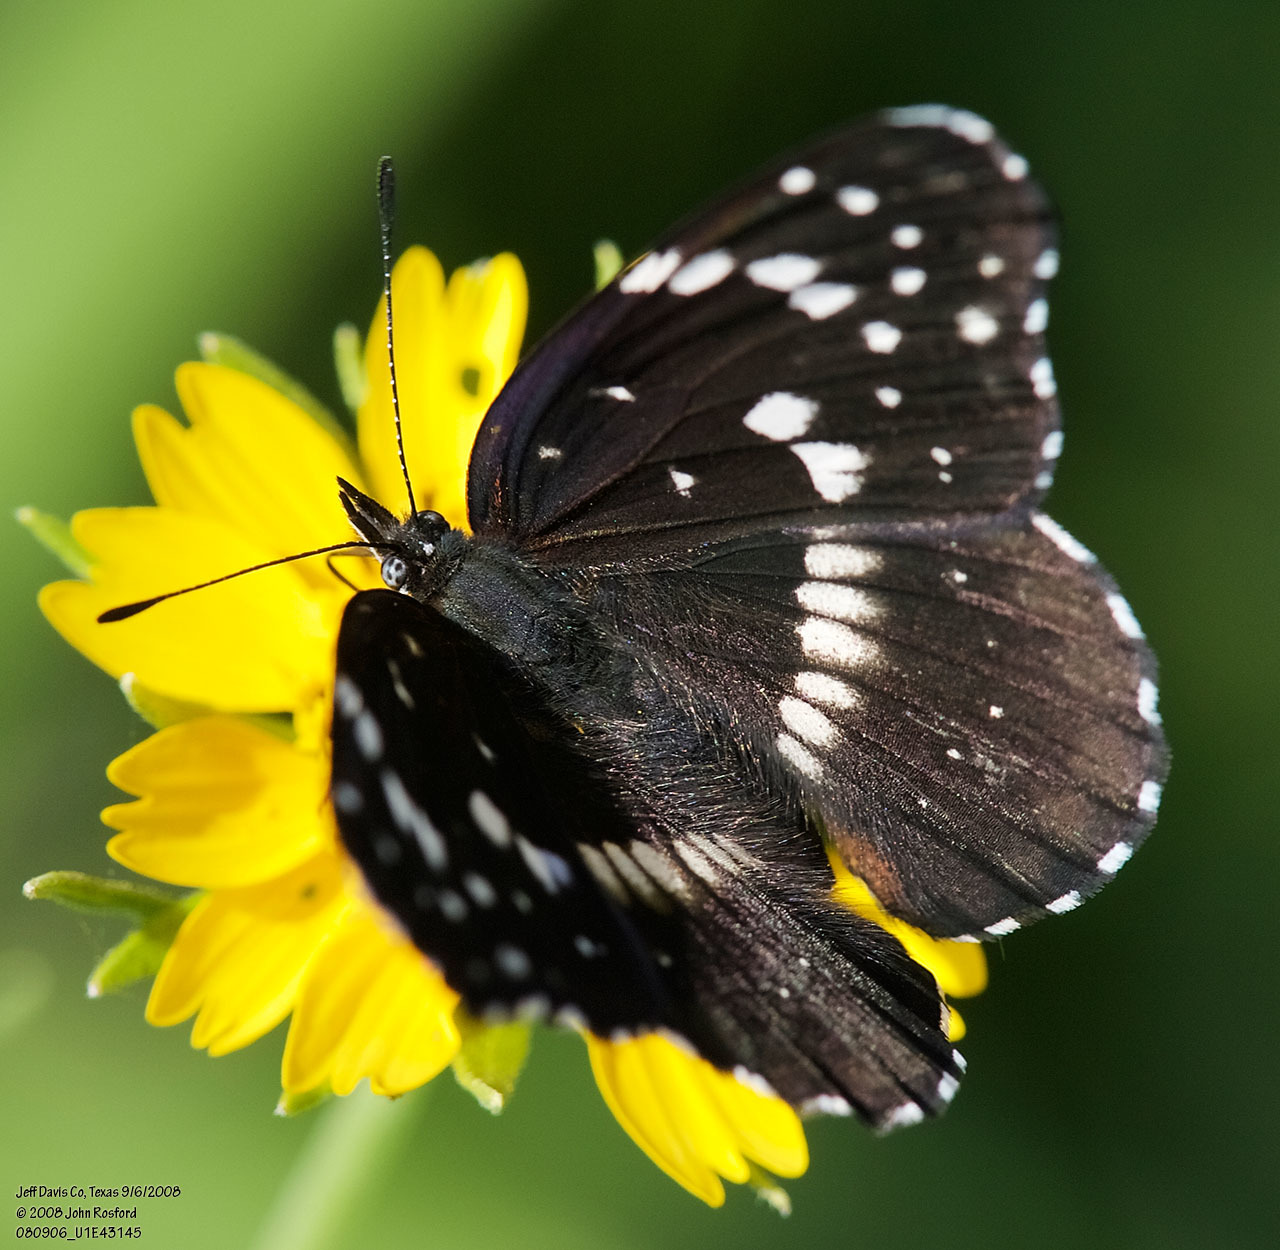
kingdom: Animalia
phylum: Arthropoda
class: Insecta
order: Lepidoptera
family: Nymphalidae
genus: Chlosyne
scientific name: Chlosyne lacinia
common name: Bordered patch
